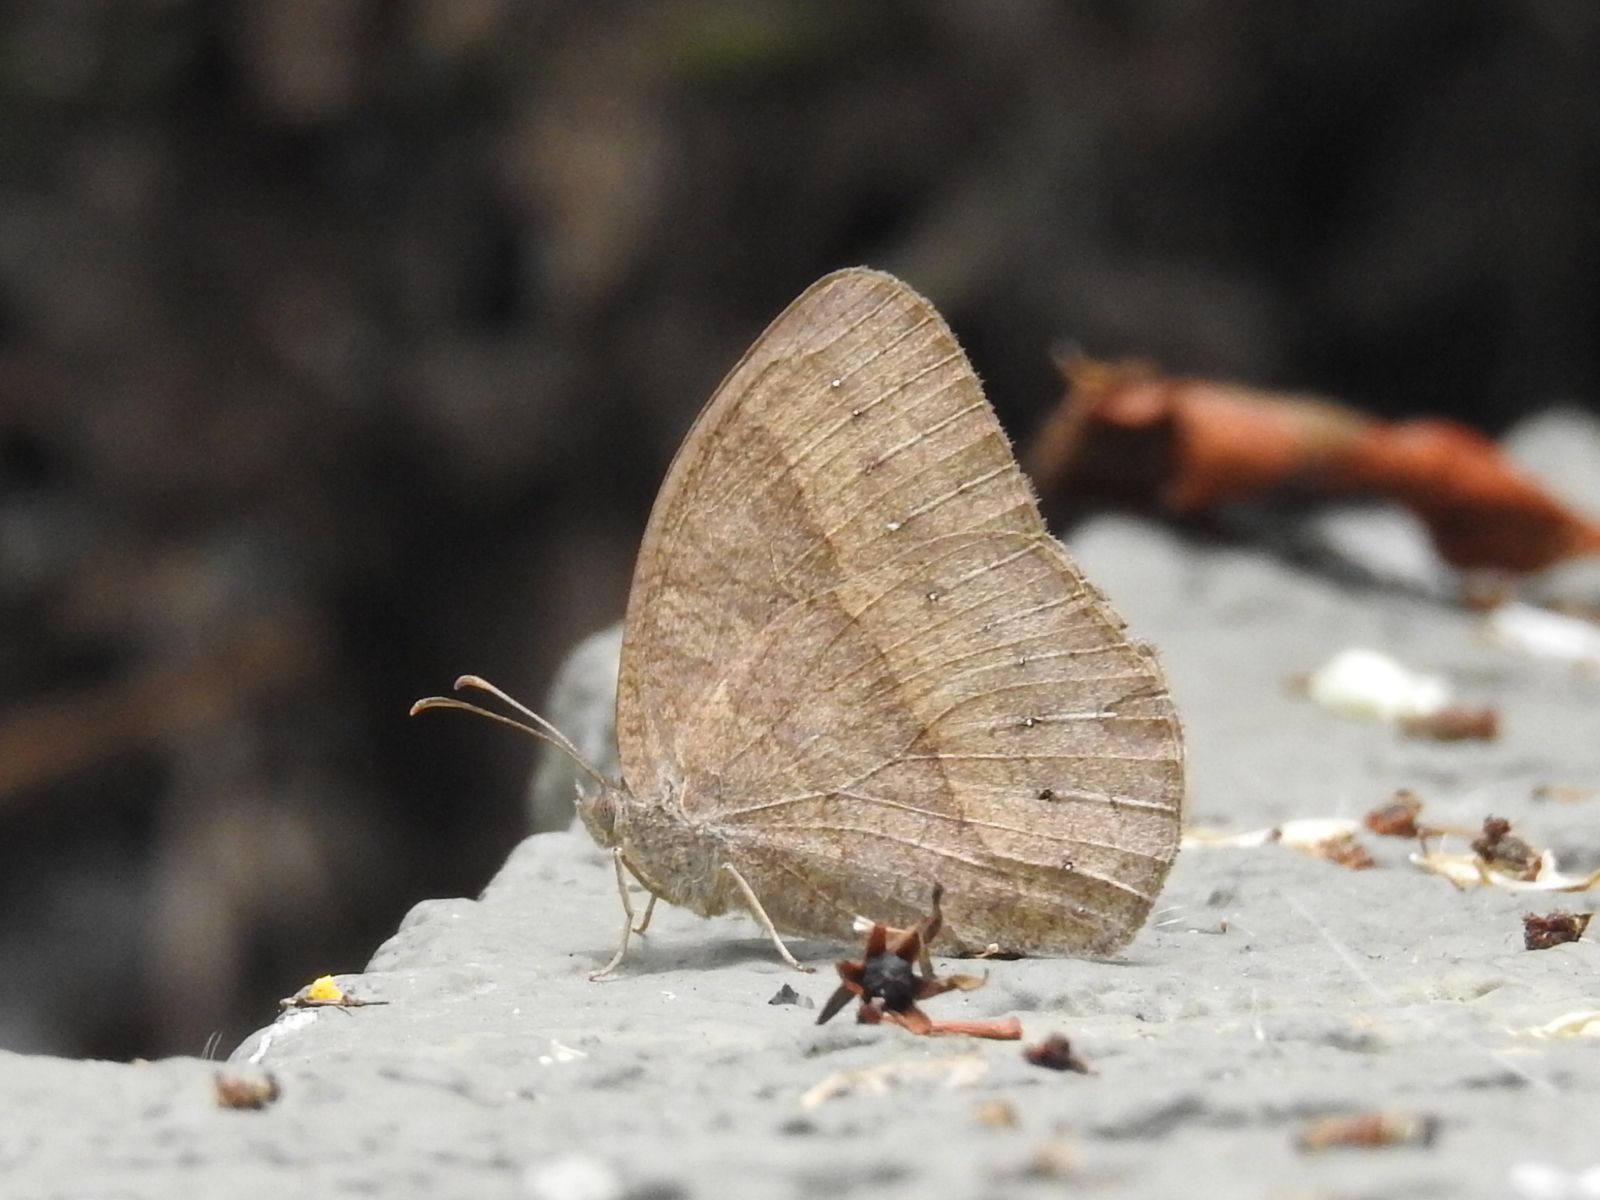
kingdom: Animalia
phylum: Arthropoda
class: Insecta
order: Lepidoptera
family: Nymphalidae
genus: Mycalesis
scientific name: Mycalesis mineus
